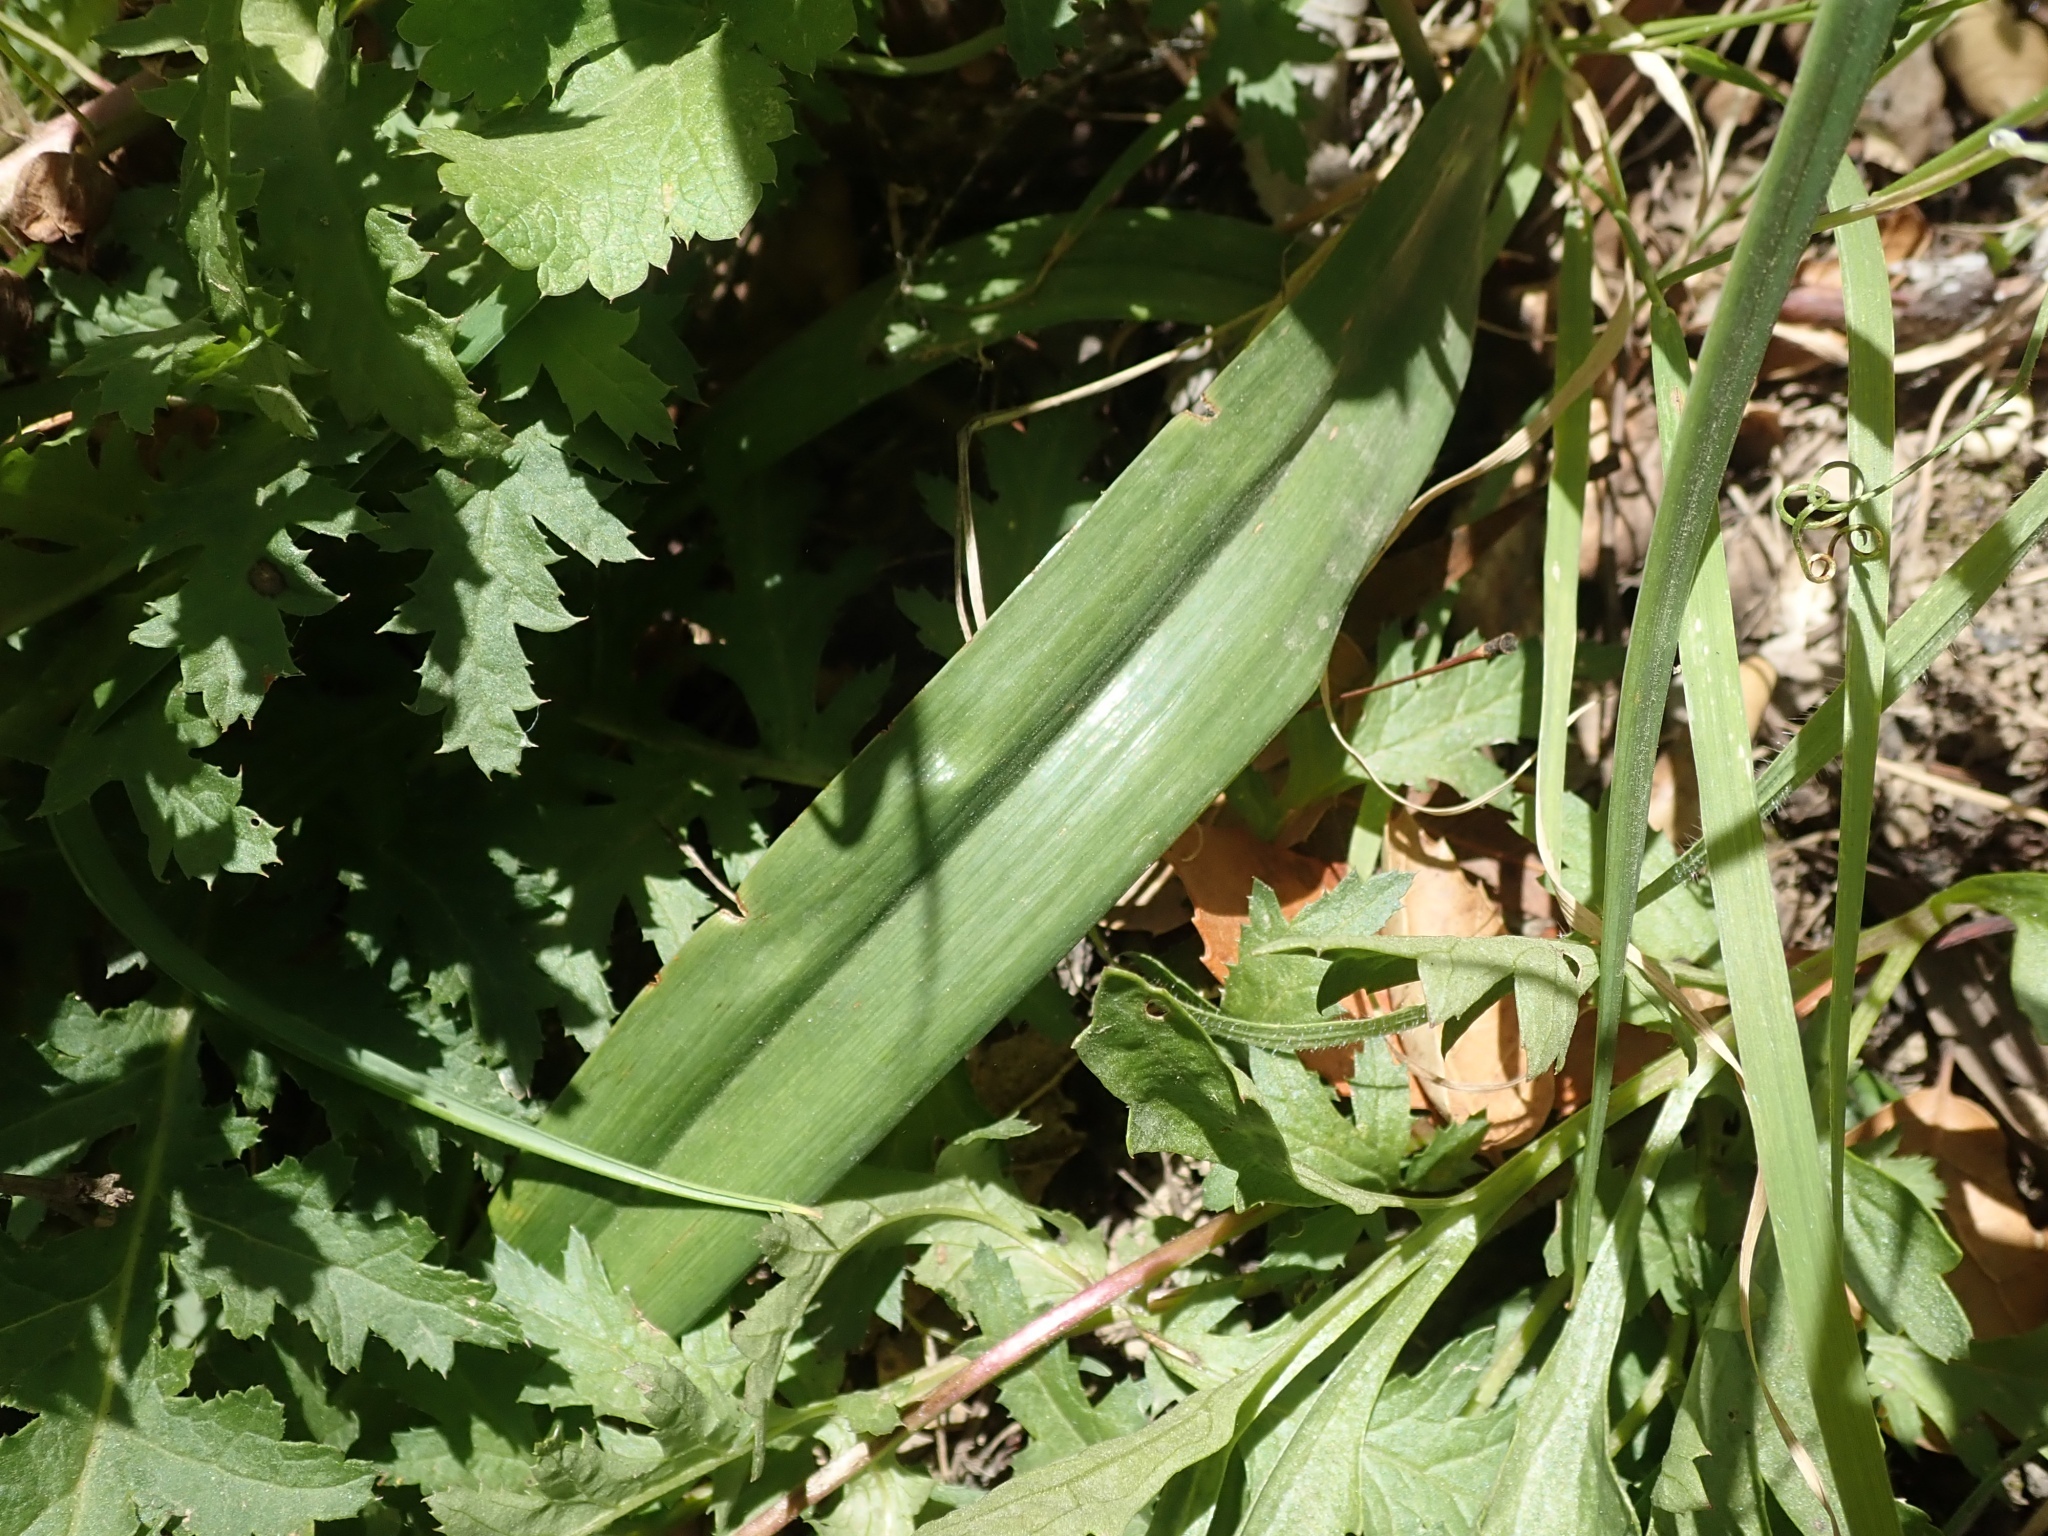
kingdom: Plantae
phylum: Tracheophyta
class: Liliopsida
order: Liliales
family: Liliaceae
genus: Calochortus
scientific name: Calochortus albus
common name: Fairy-lantern
